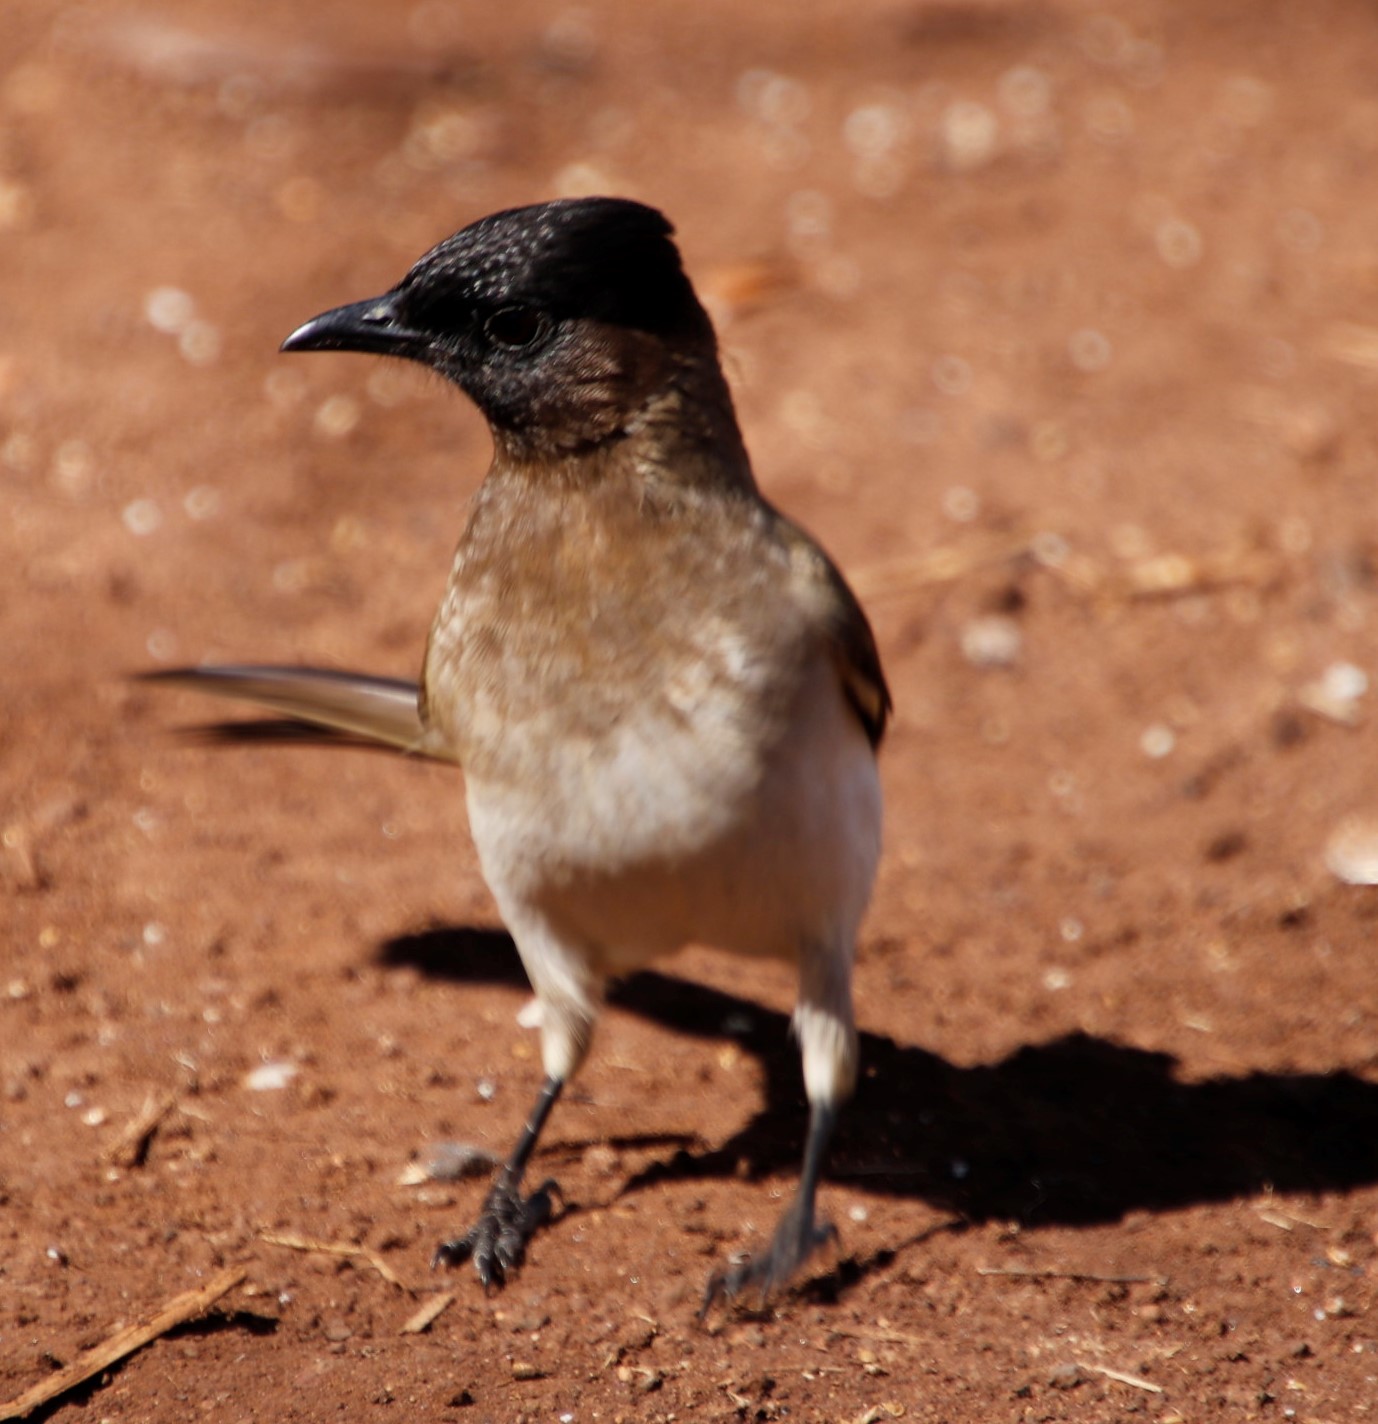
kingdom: Animalia
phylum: Chordata
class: Aves
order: Passeriformes
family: Pycnonotidae
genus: Pycnonotus
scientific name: Pycnonotus barbatus
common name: Common bulbul
